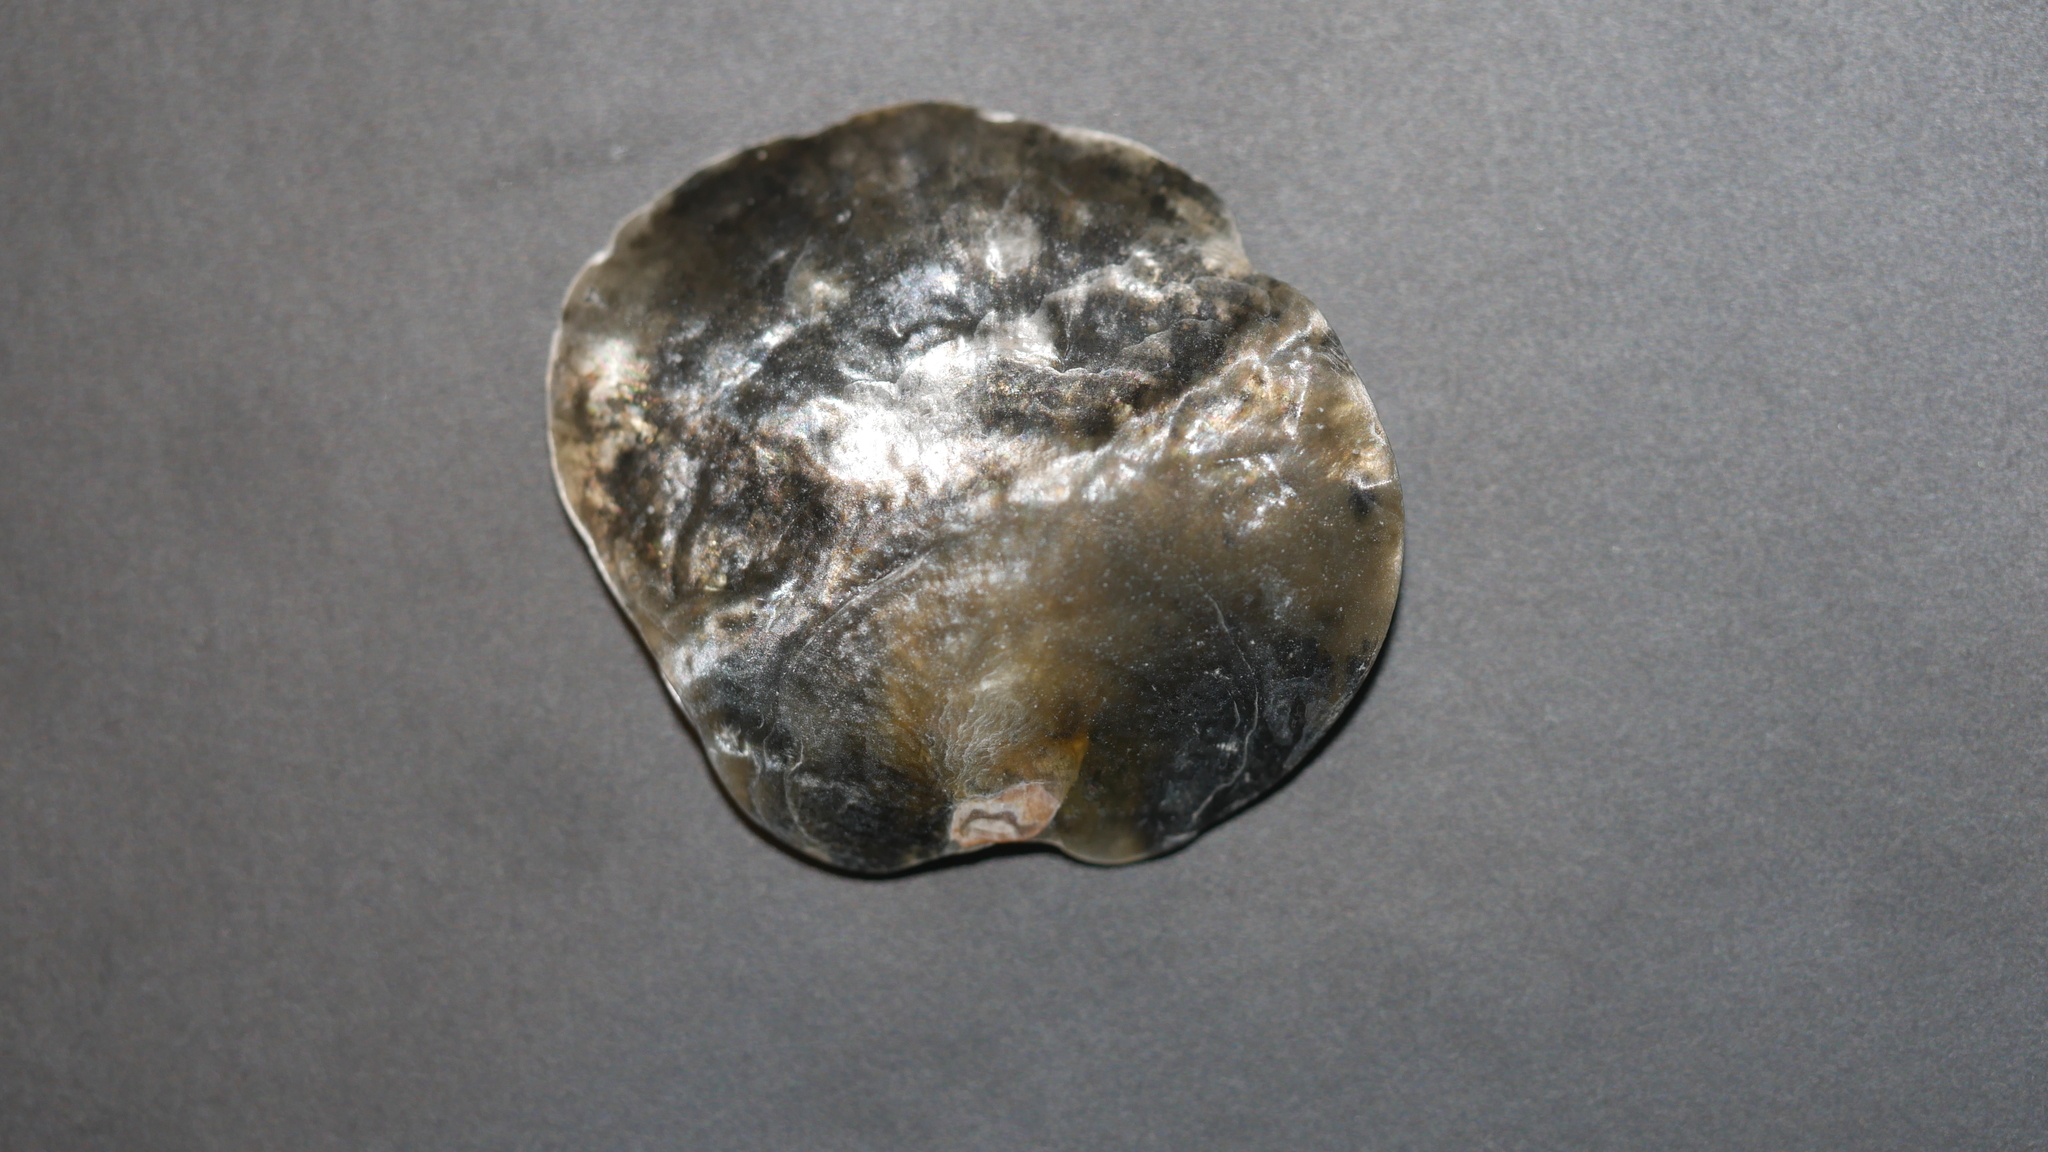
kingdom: Animalia
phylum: Mollusca
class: Bivalvia
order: Pectinida
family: Anomiidae
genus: Anomia
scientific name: Anomia simplex
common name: Common jingle shell
